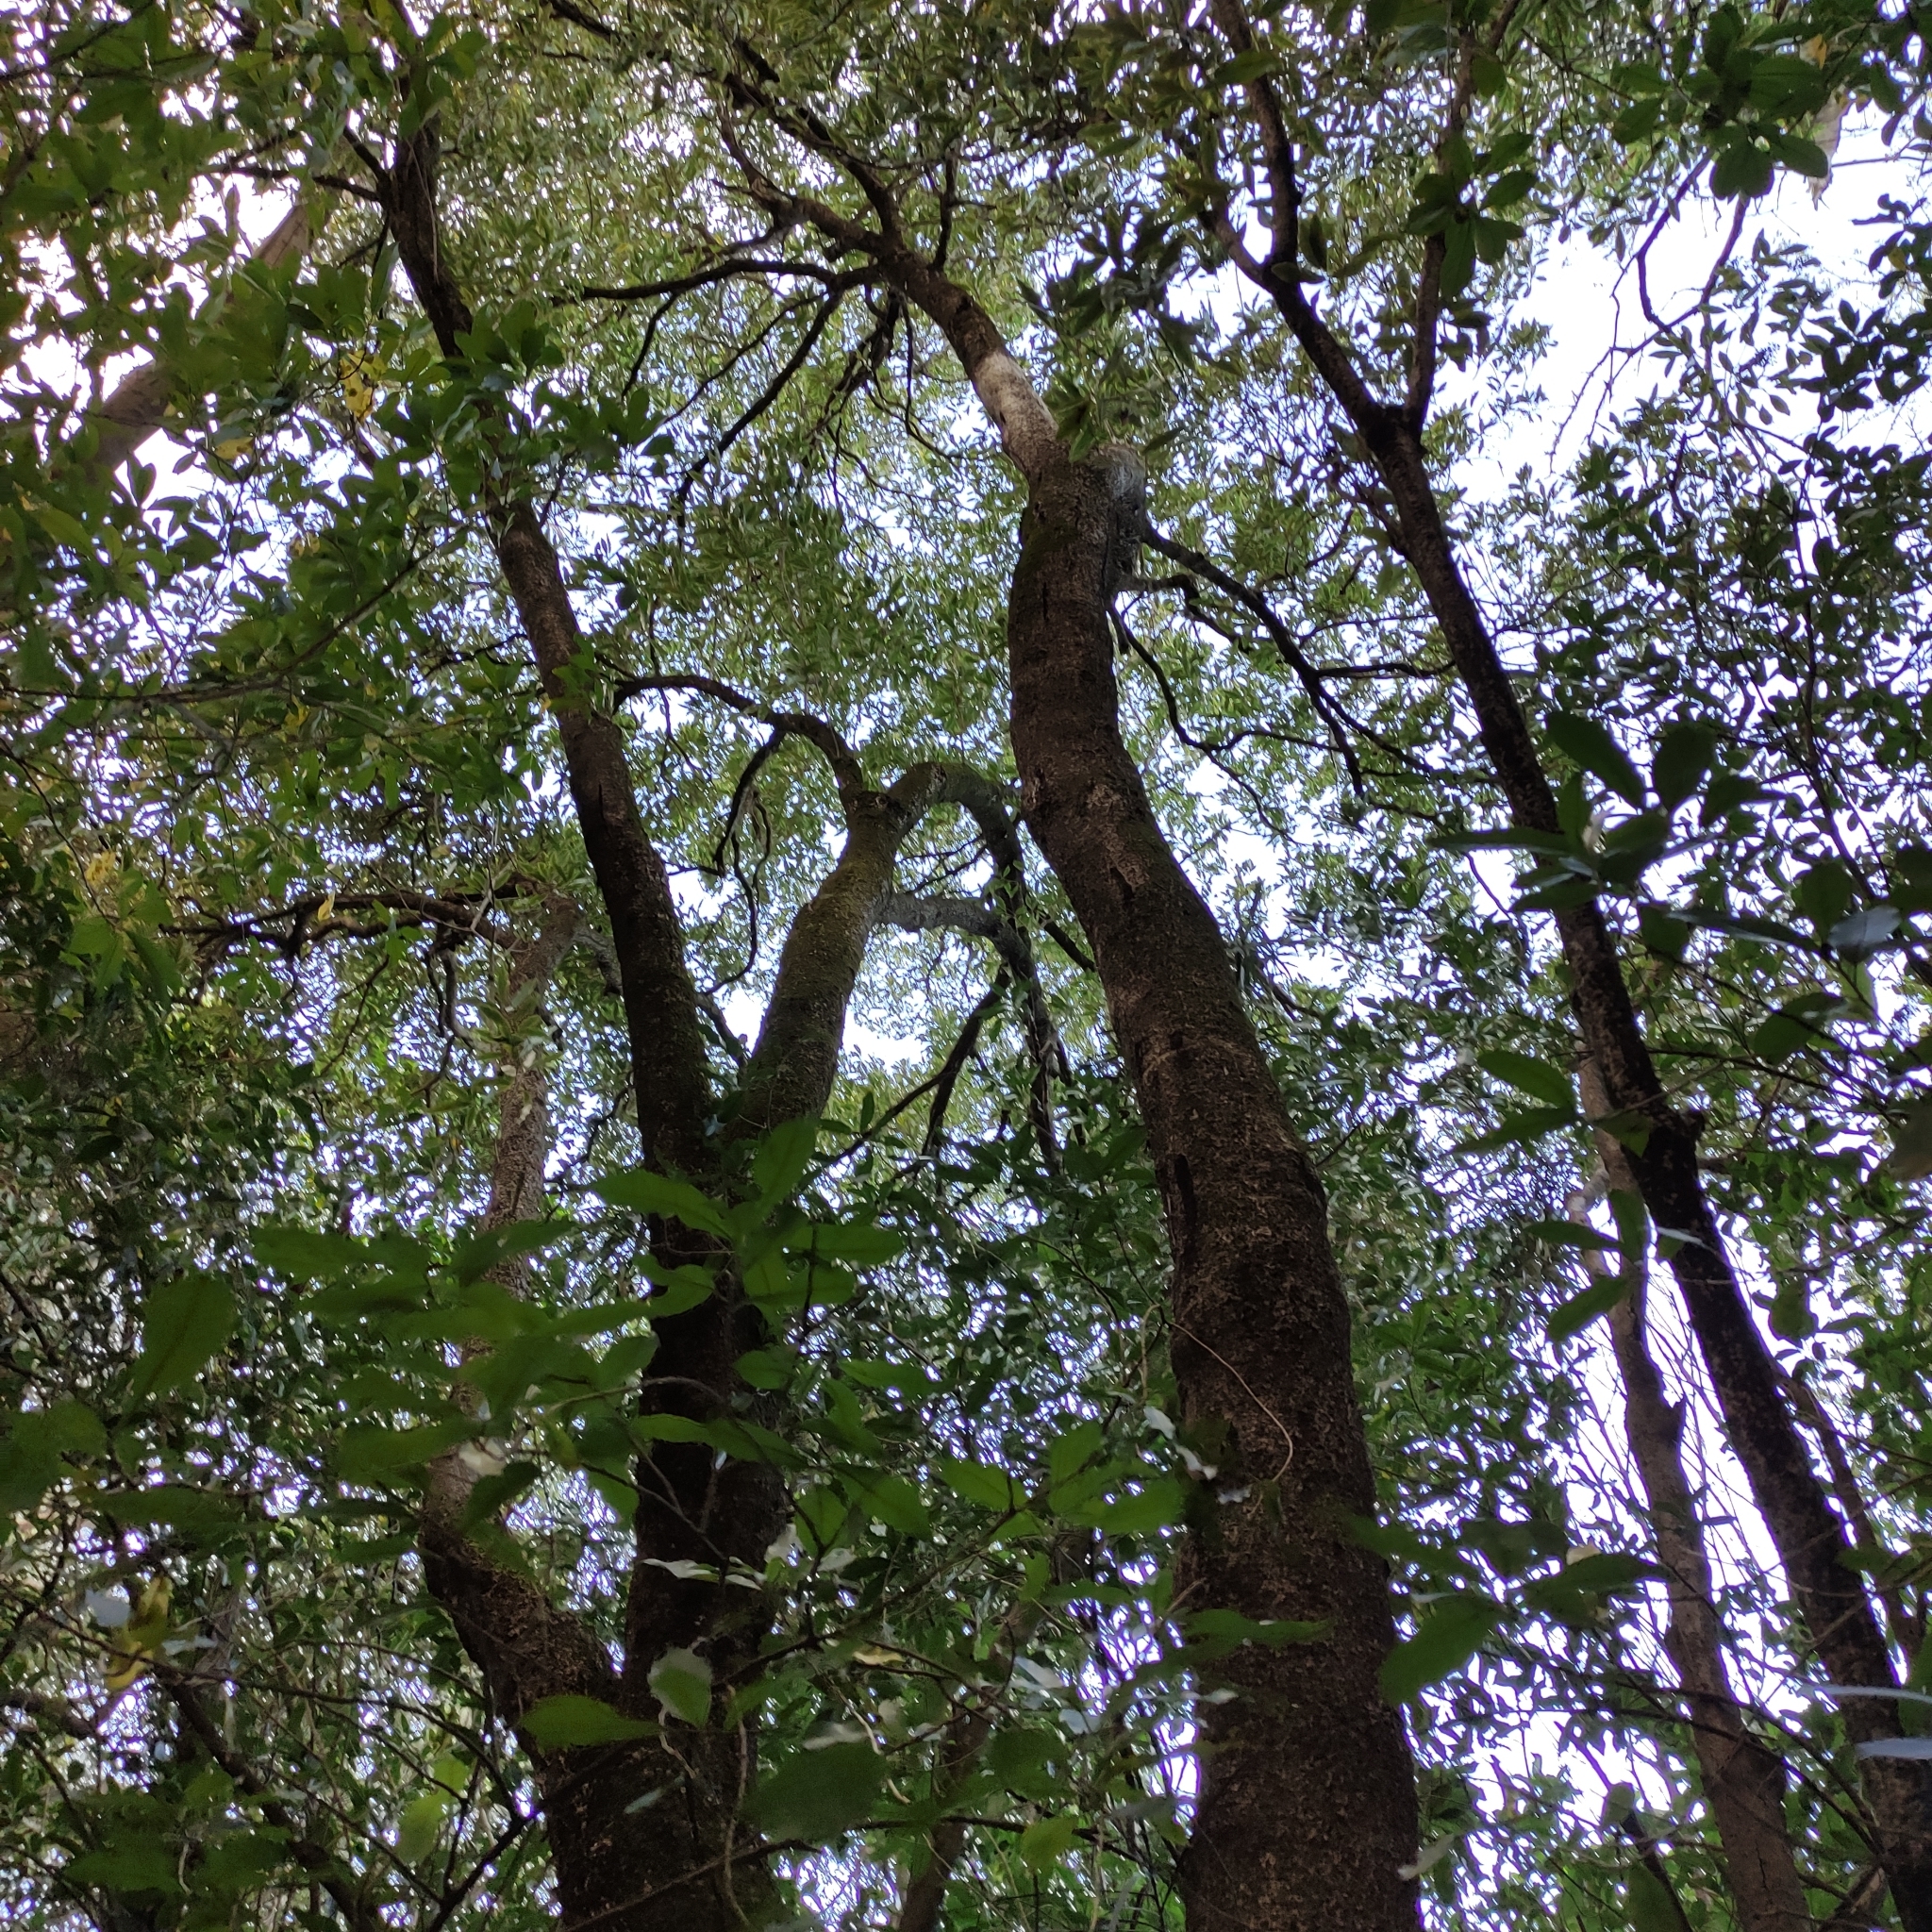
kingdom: Plantae
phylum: Tracheophyta
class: Magnoliopsida
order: Apiales
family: Pittosporaceae
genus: Pittosporum
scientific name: Pittosporum eugenioides
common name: Lemonwood
